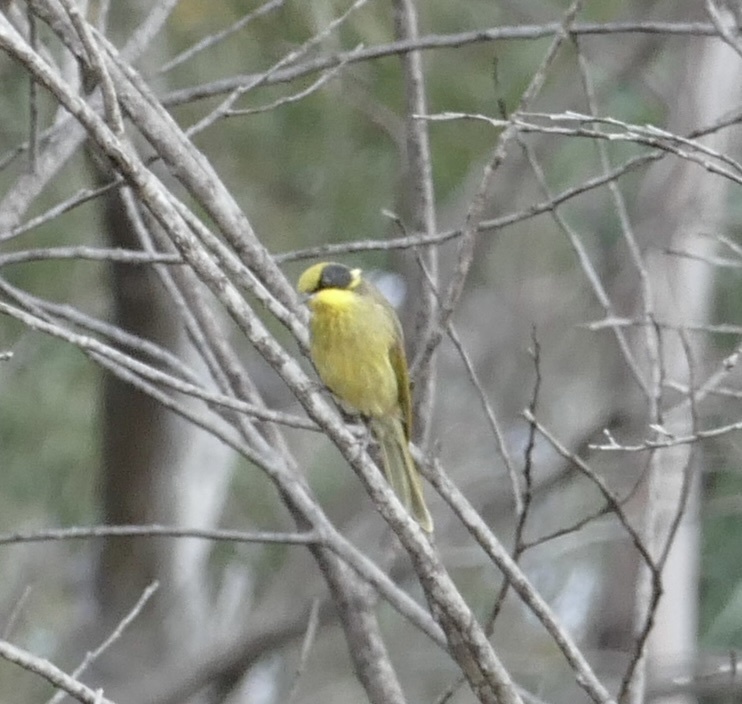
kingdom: Animalia
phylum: Chordata
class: Aves
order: Passeriformes
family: Meliphagidae
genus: Lichenostomus
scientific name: Lichenostomus melanops
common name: Yellow-tufted honeyeater
